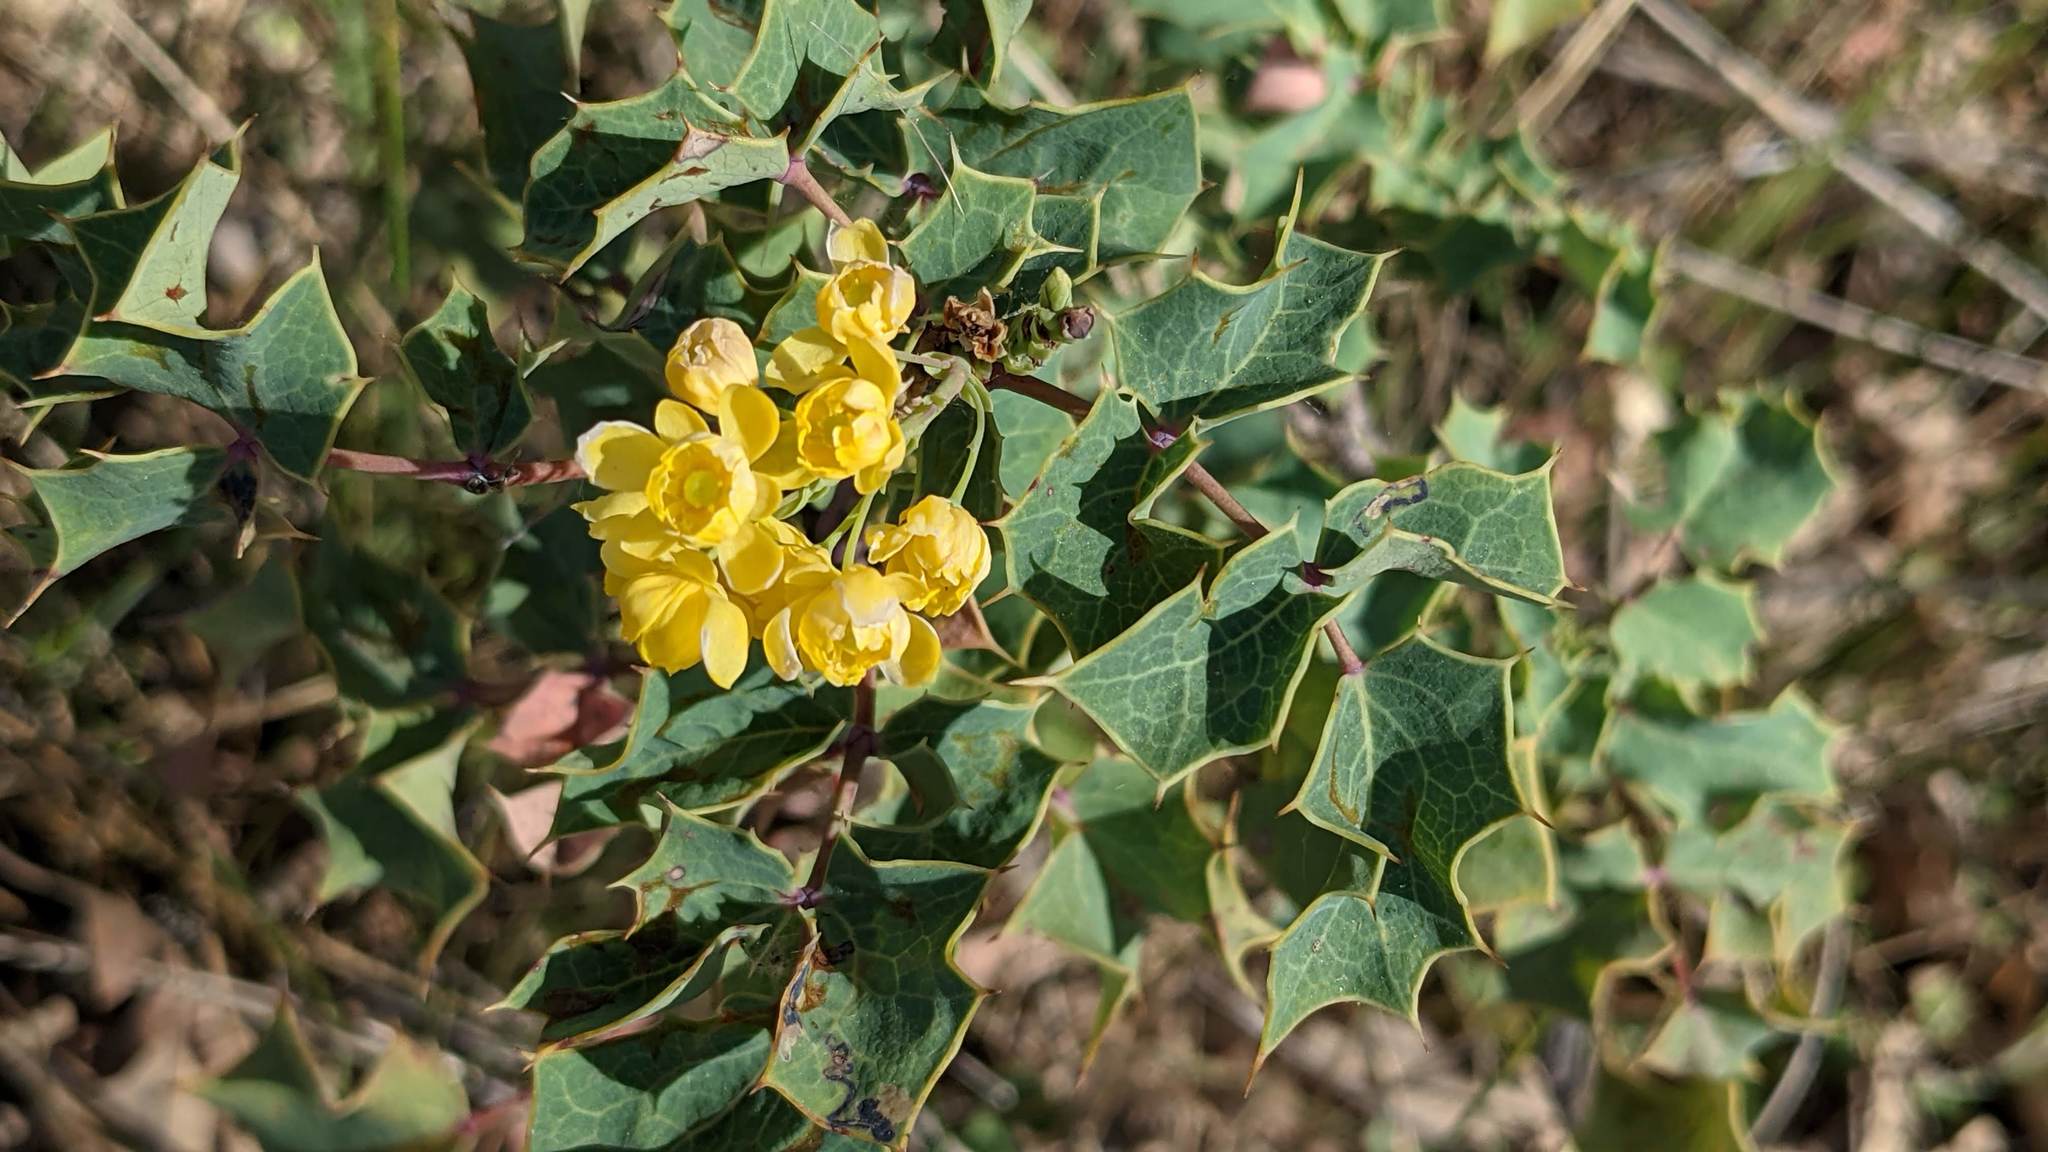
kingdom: Plantae
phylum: Tracheophyta
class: Magnoliopsida
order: Ranunculales
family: Berberidaceae
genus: Mahonia
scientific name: Mahonia dictyota
